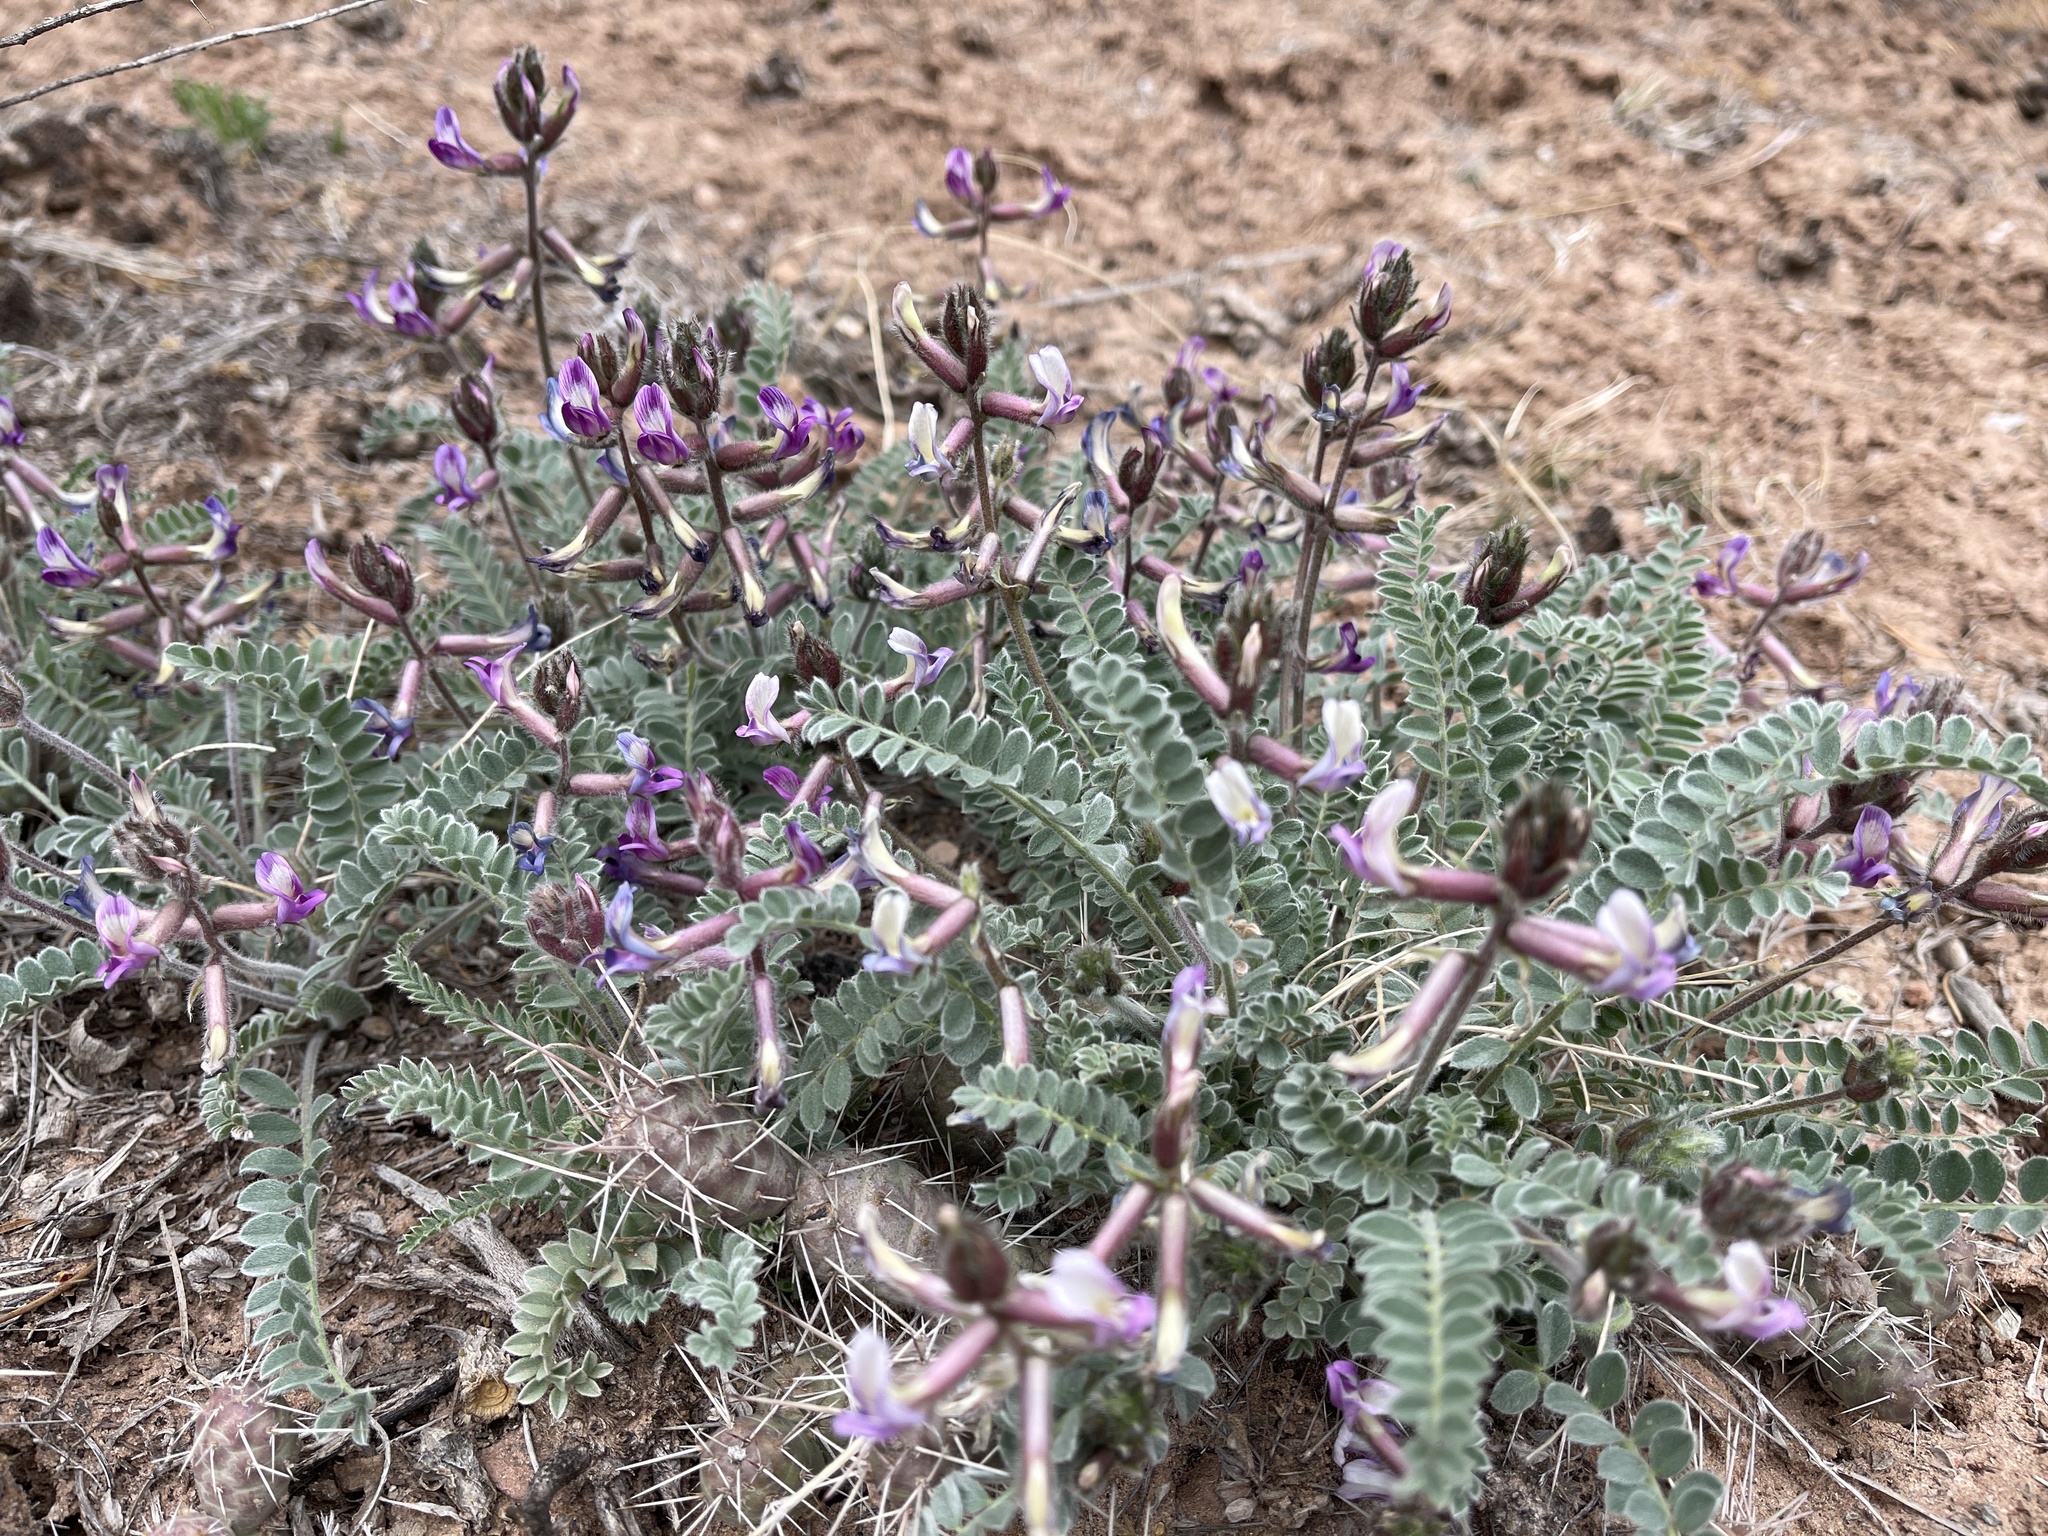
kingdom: Plantae
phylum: Tracheophyta
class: Magnoliopsida
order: Fabales
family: Fabaceae
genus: Astragalus
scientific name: Astragalus mollissimus
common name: Woolly locoweed
